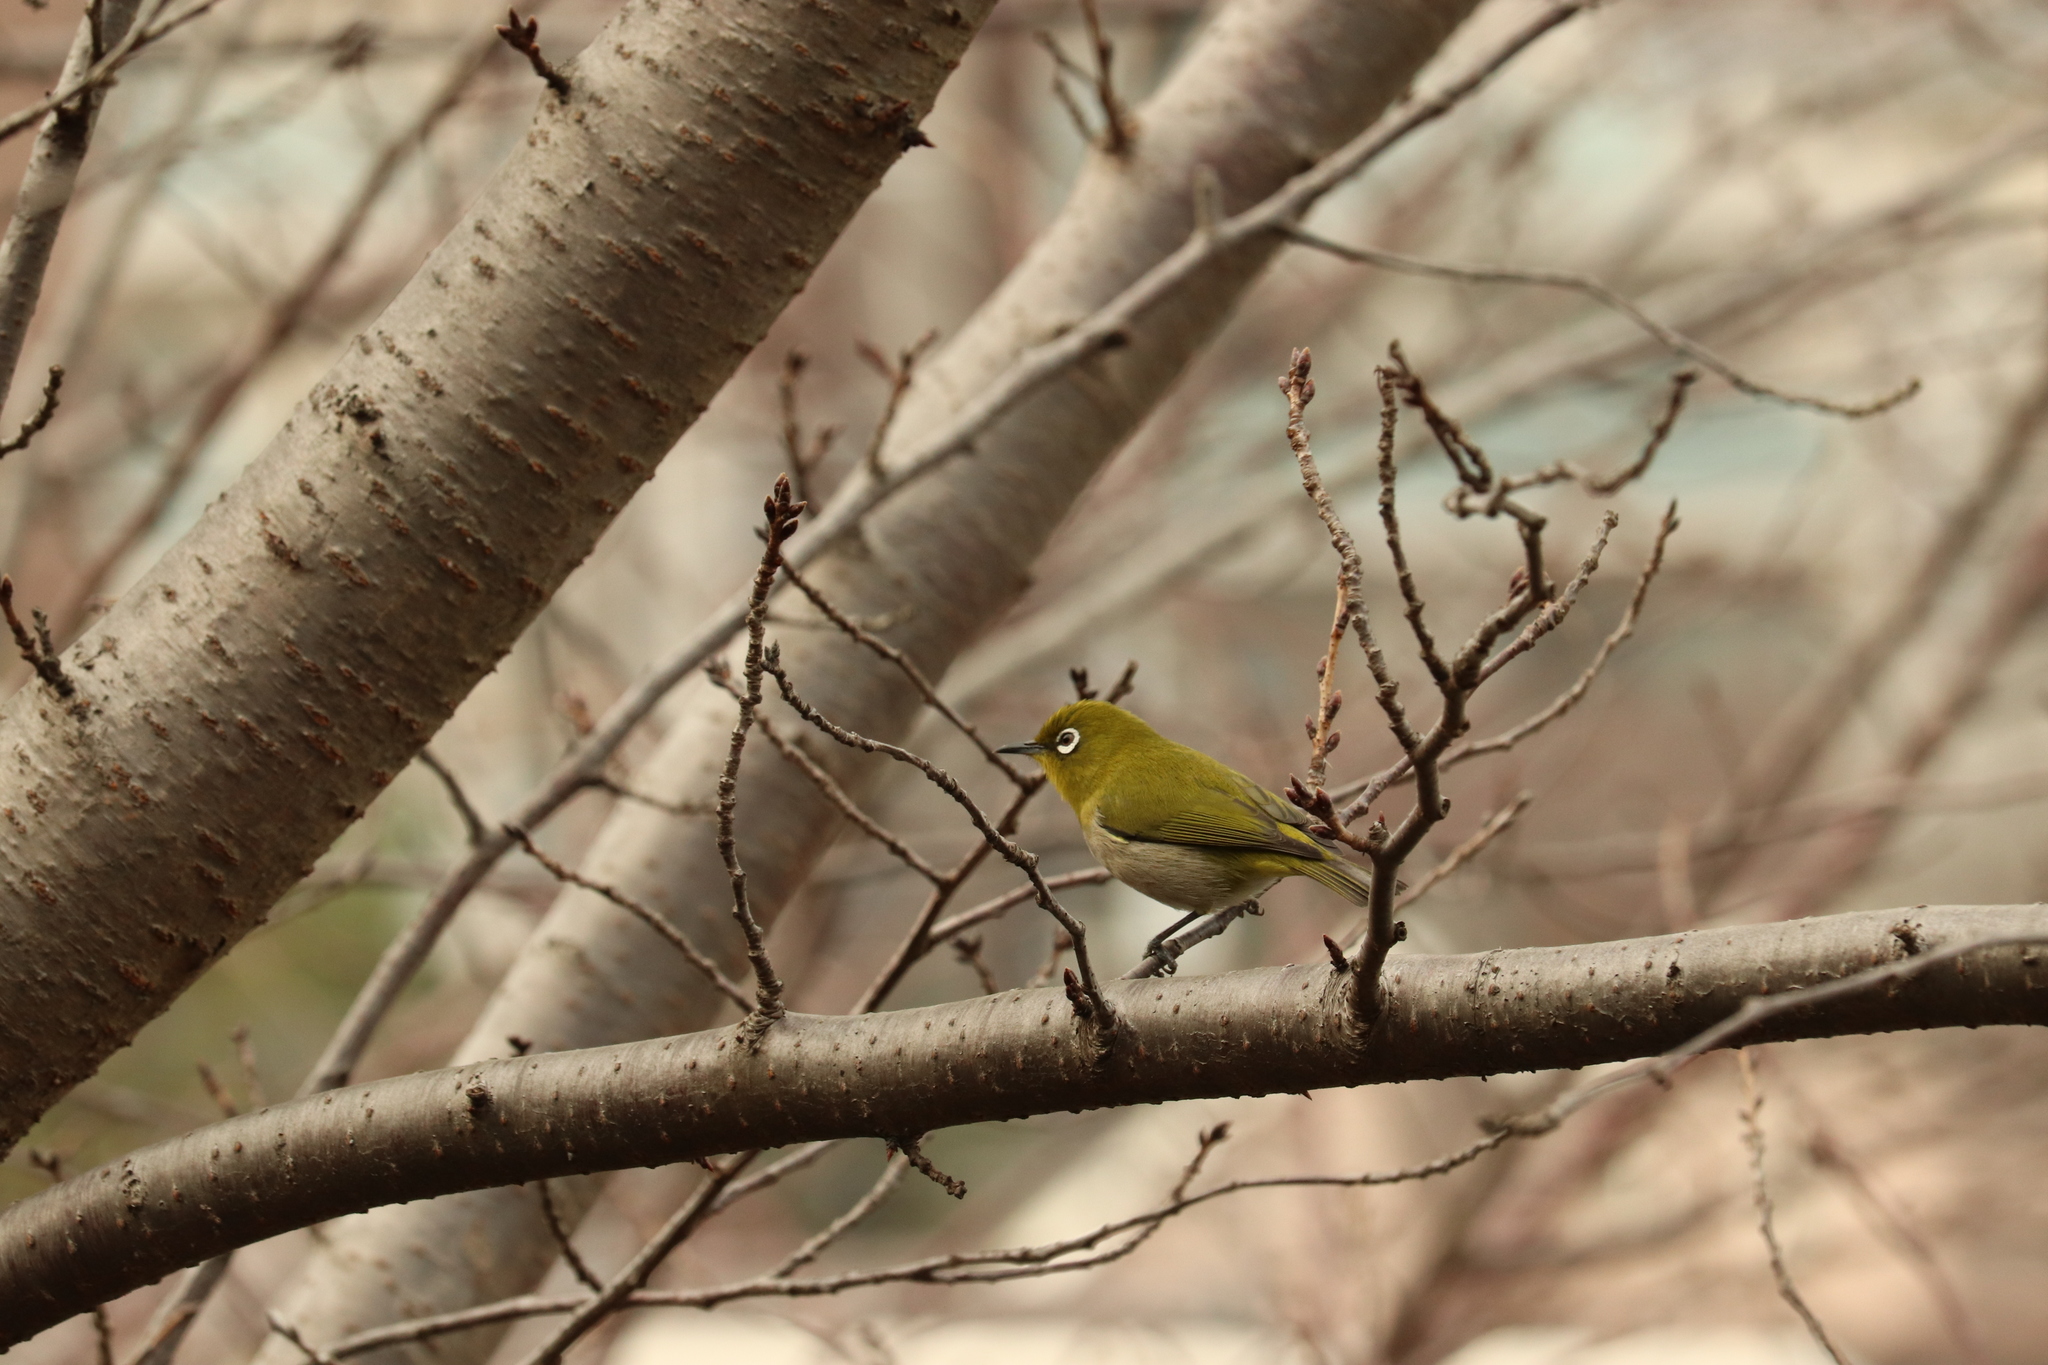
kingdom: Animalia
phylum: Chordata
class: Aves
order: Passeriformes
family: Zosteropidae
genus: Zosterops
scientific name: Zosterops japonicus
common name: Japanese white-eye
